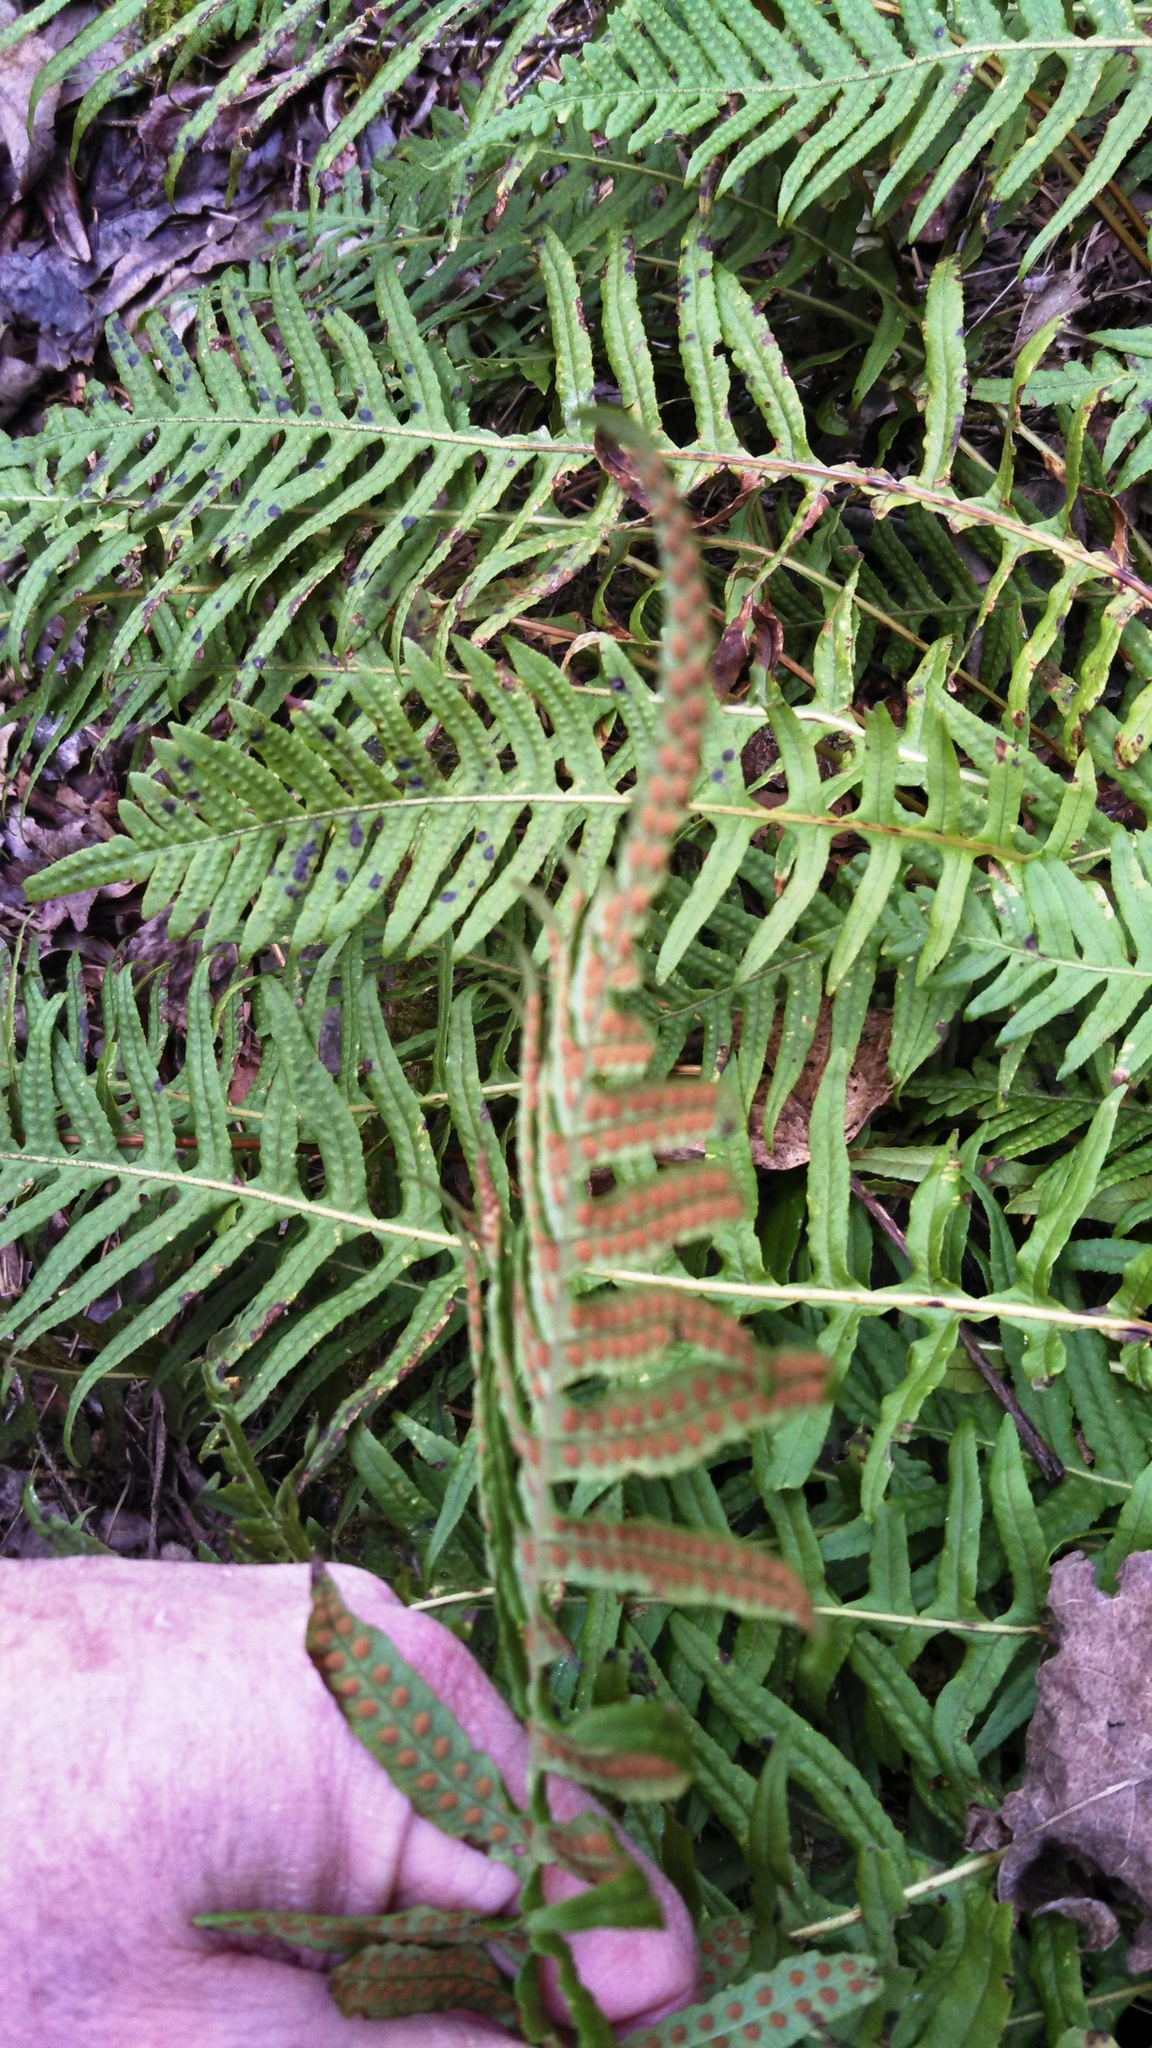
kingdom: Plantae
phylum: Tracheophyta
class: Polypodiopsida
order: Polypodiales
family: Polypodiaceae
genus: Polypodium
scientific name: Polypodium glycyrrhiza
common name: Licorice fern
